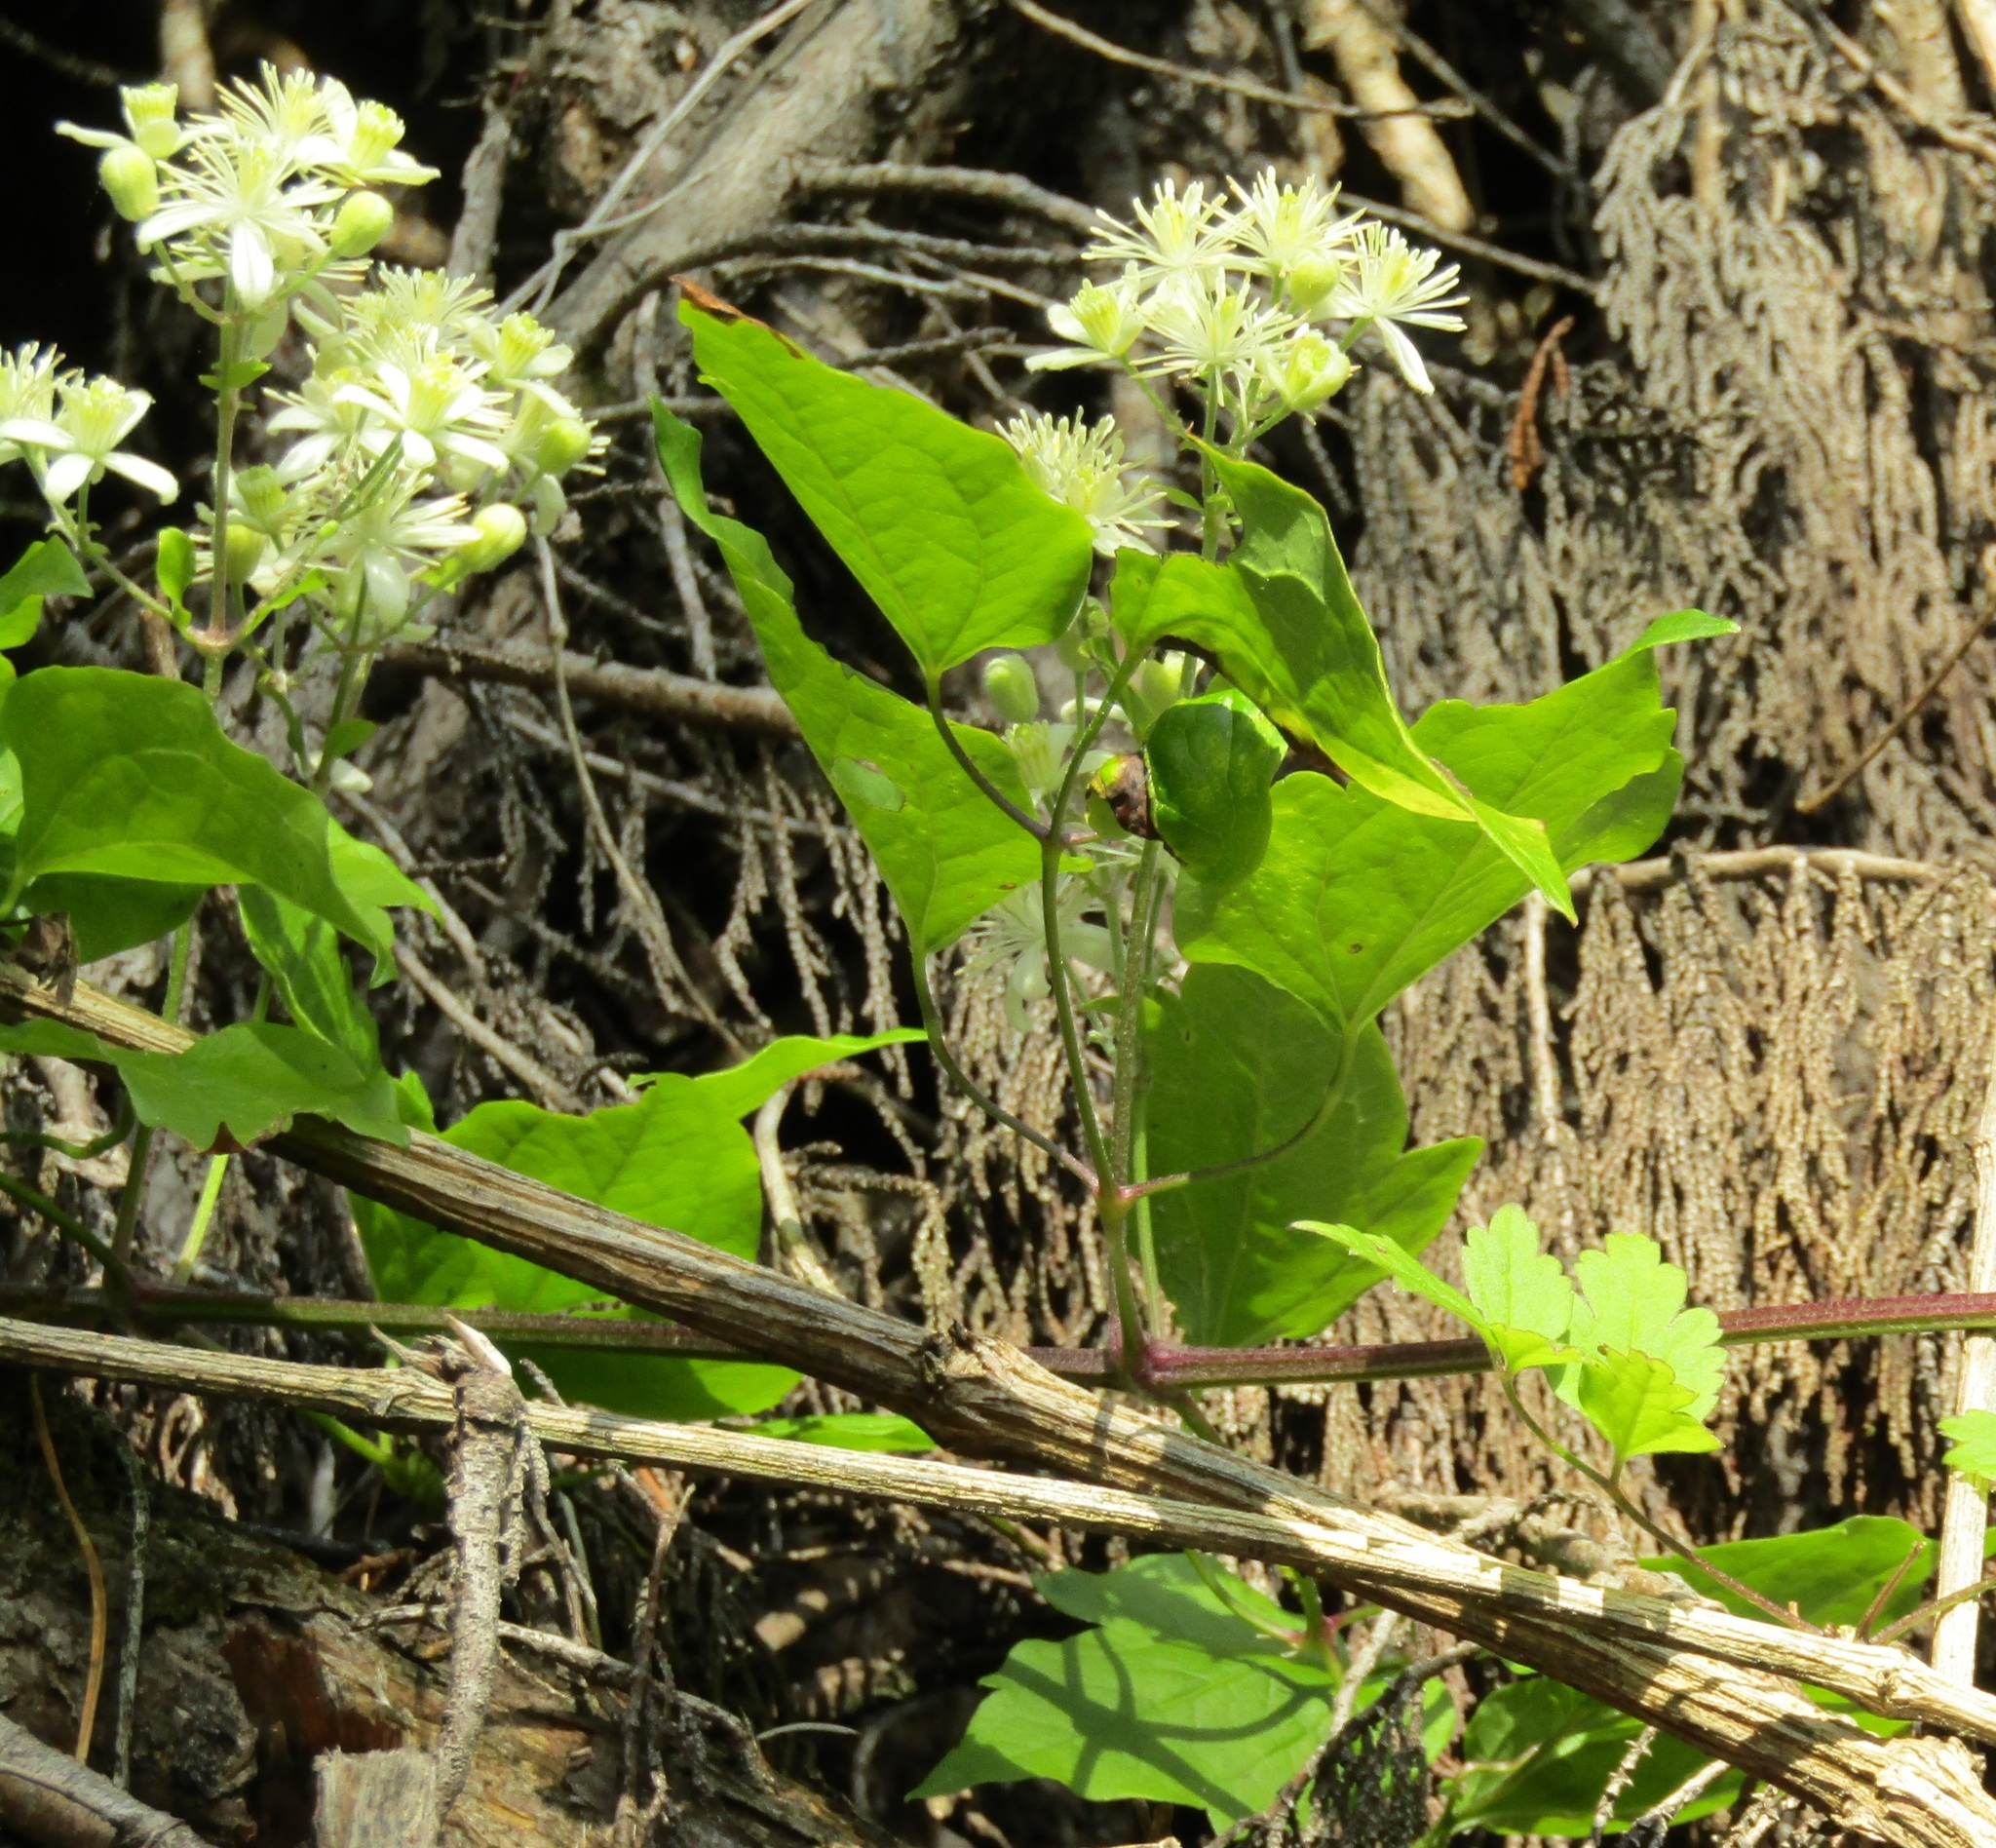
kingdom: Plantae
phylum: Tracheophyta
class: Magnoliopsida
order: Ranunculales
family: Ranunculaceae
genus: Clematis
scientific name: Clematis vitalba
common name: Evergreen clematis
